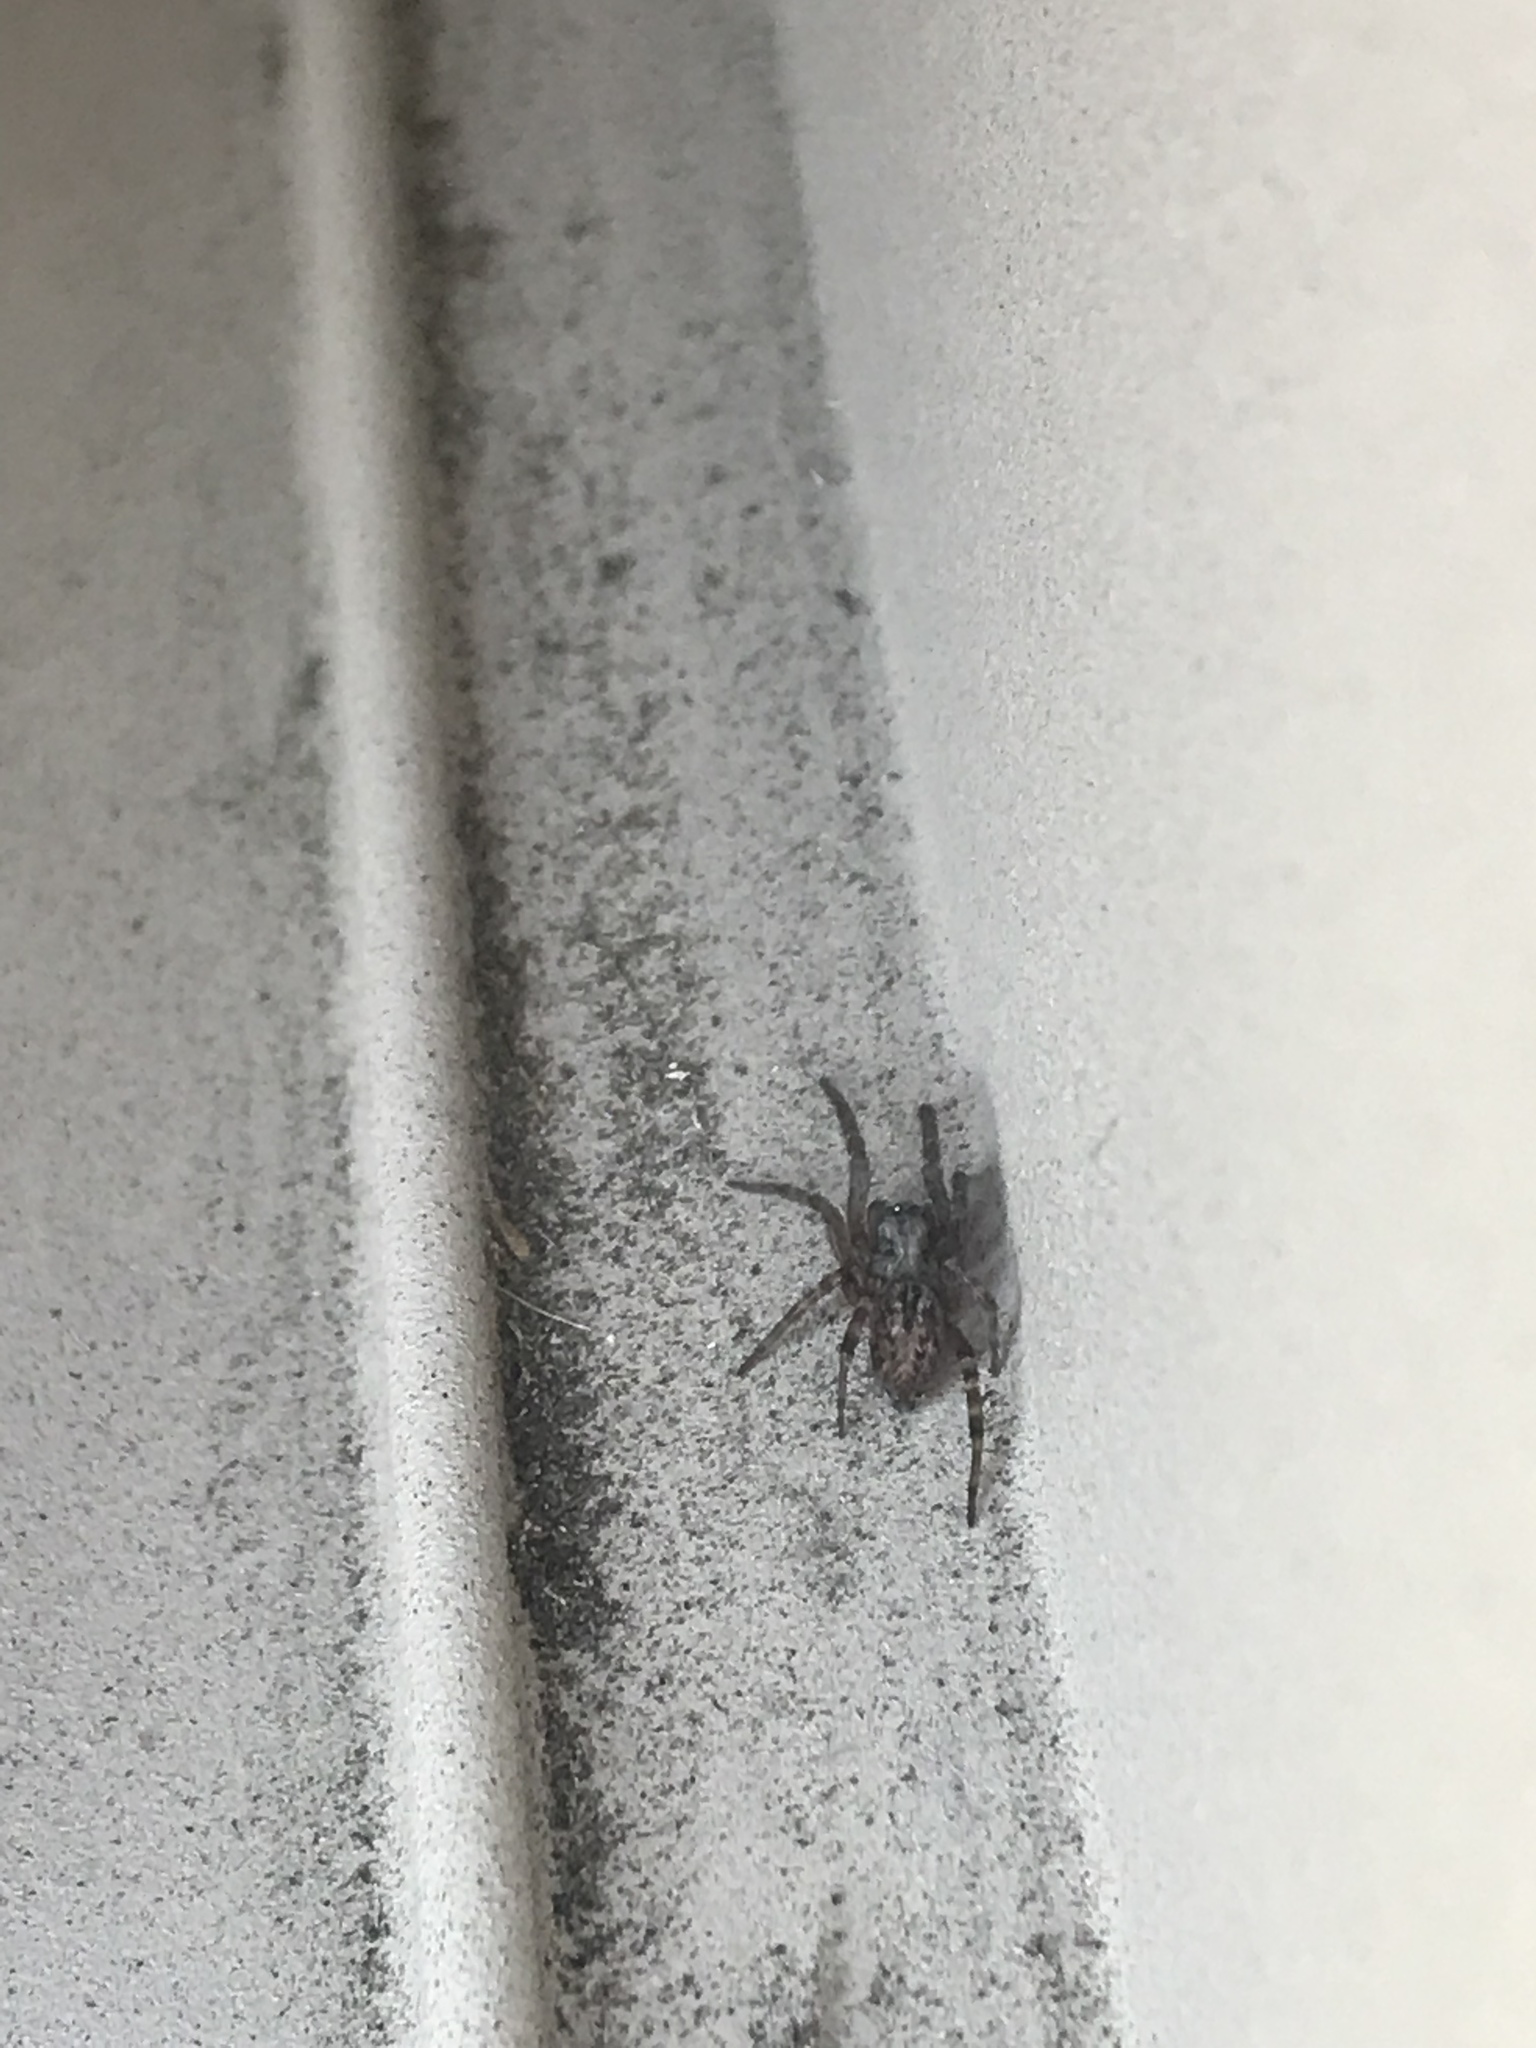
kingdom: Animalia
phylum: Arthropoda
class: Arachnida
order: Araneae
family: Desidae
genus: Badumna
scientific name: Badumna longinqua
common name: Gray house spider
